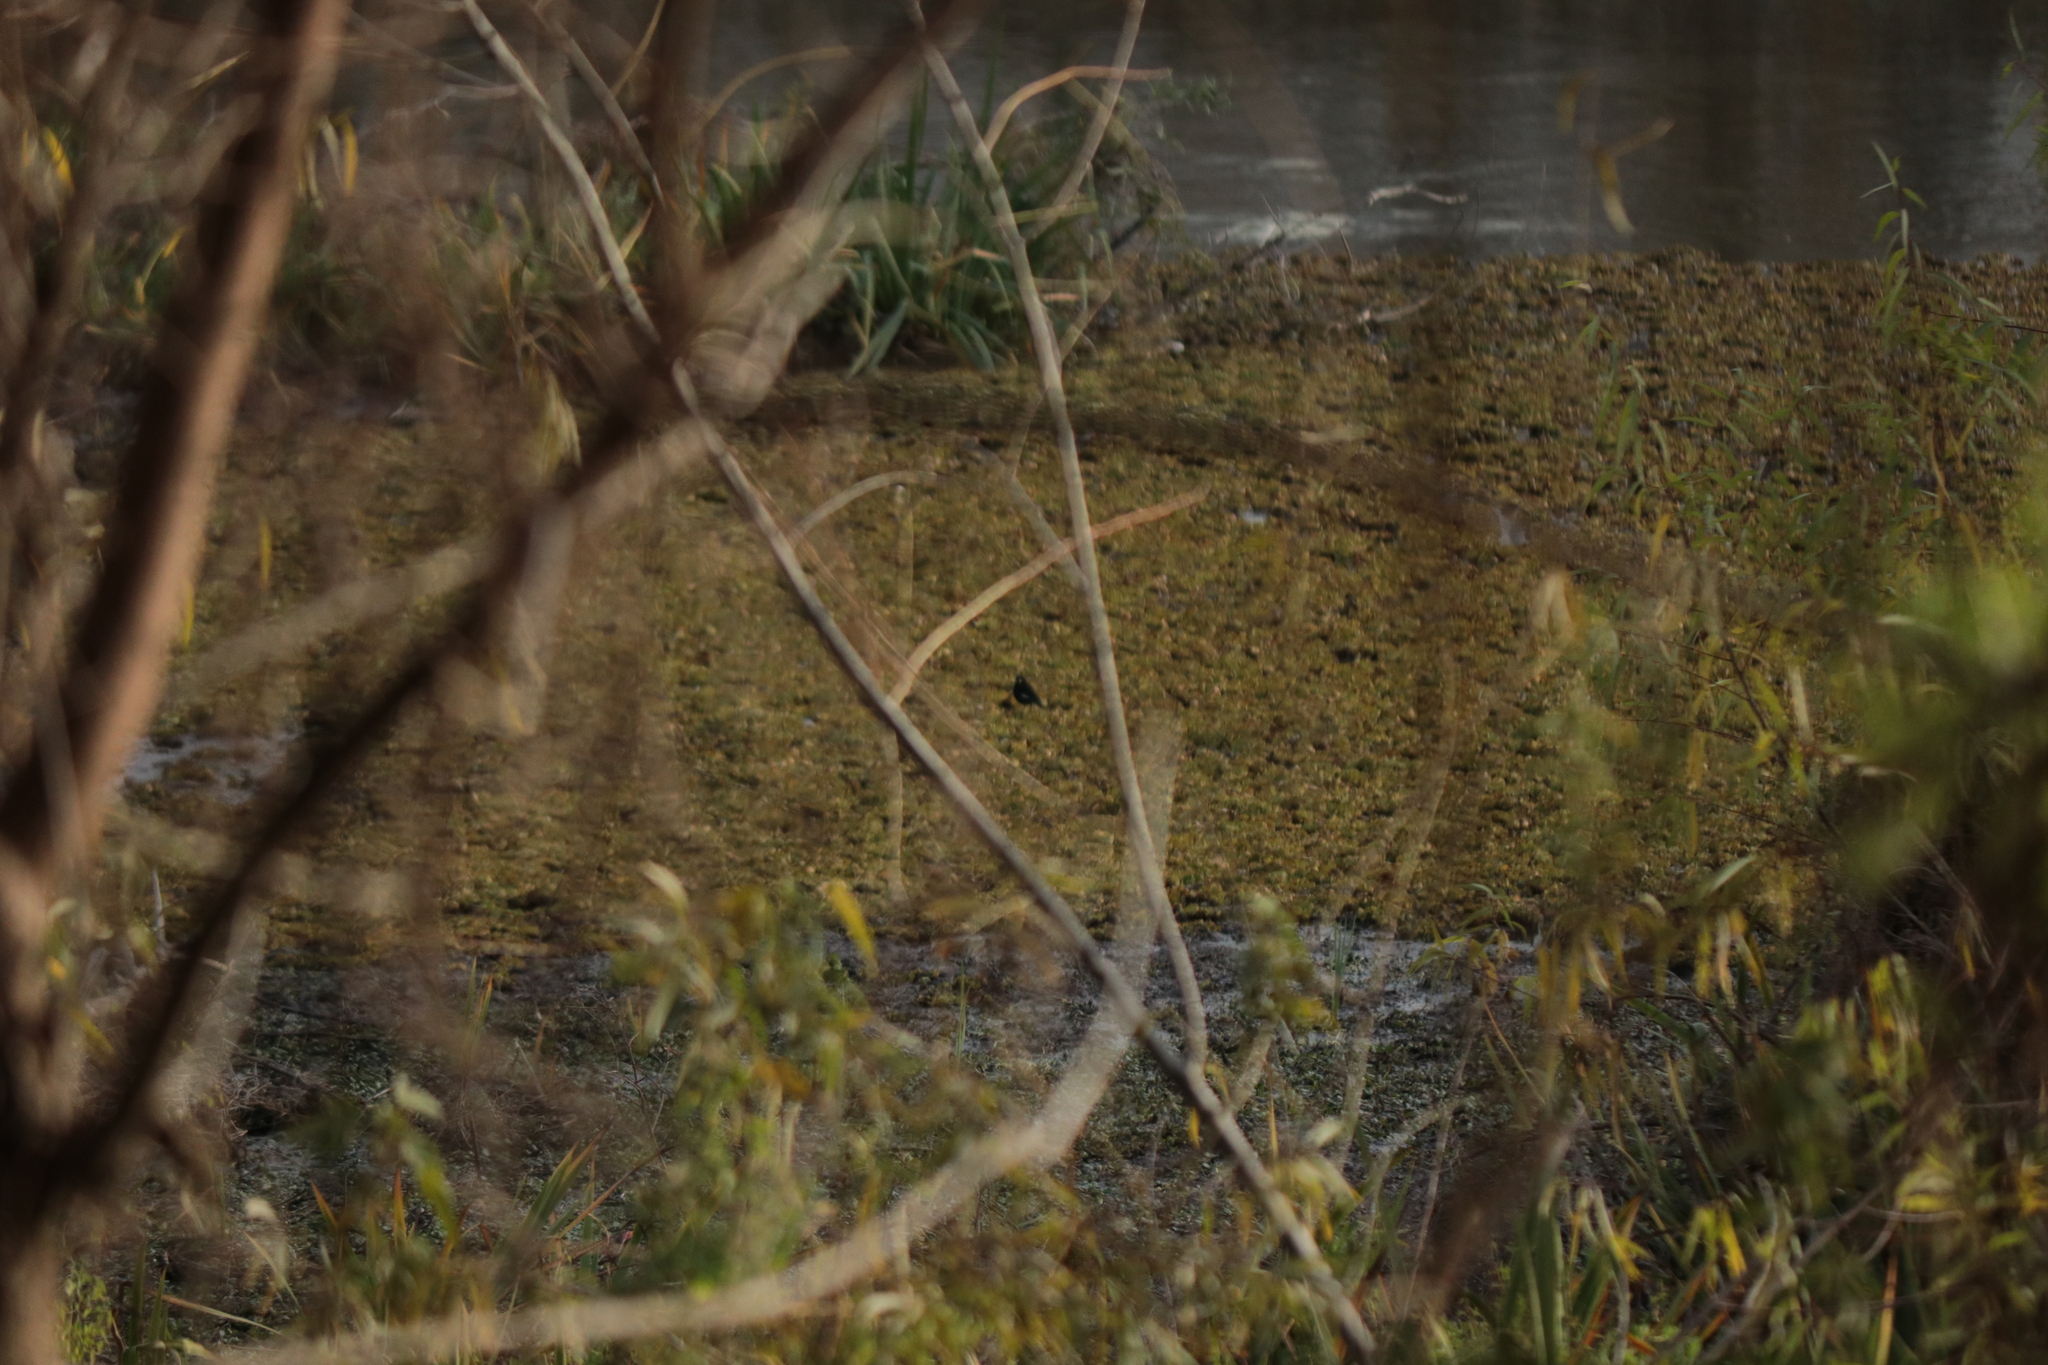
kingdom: Animalia
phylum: Chordata
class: Aves
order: Passeriformes
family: Tyrannidae
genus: Hymenops
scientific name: Hymenops perspicillatus
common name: Spectacled tyrant
